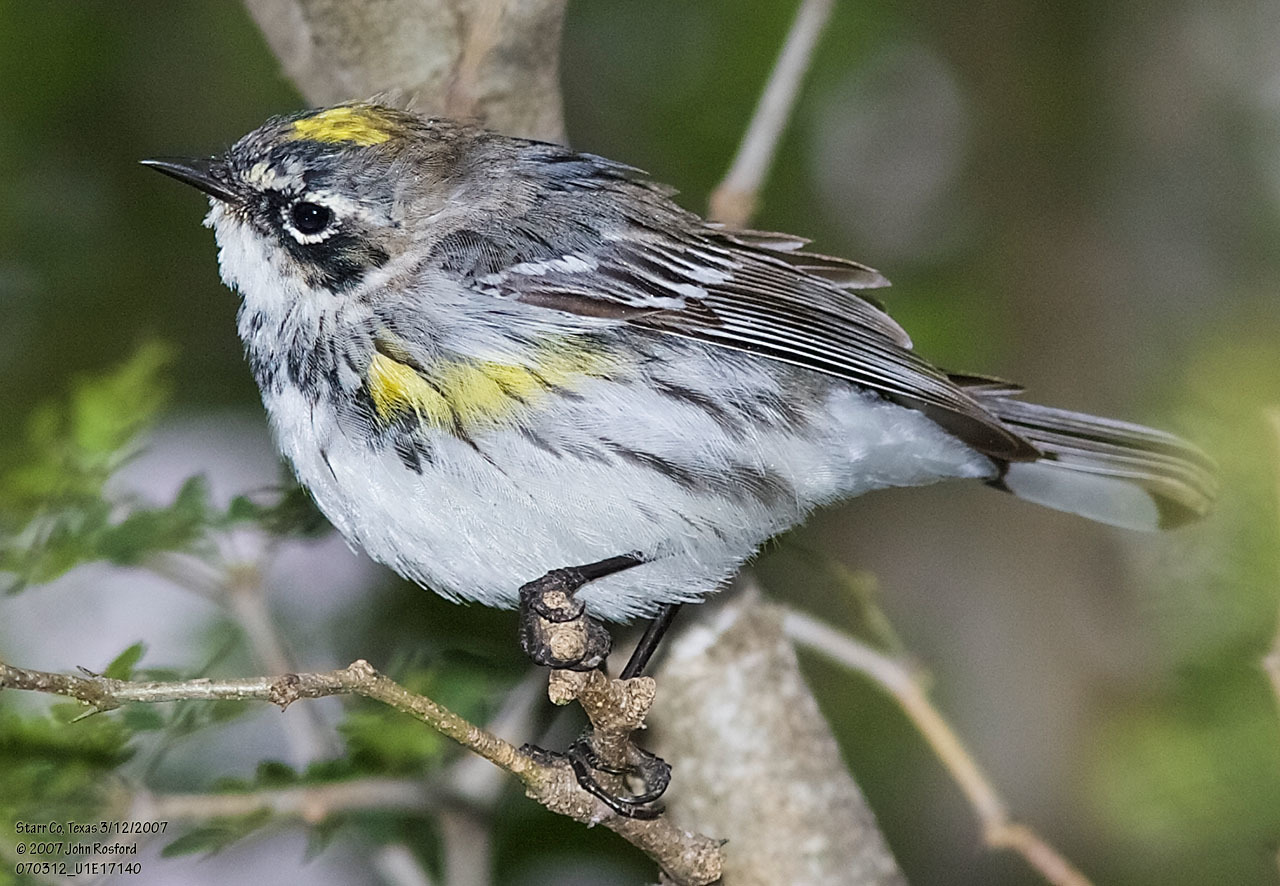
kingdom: Animalia
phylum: Chordata
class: Aves
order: Passeriformes
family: Parulidae
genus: Setophaga
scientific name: Setophaga coronata
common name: Myrtle warbler
